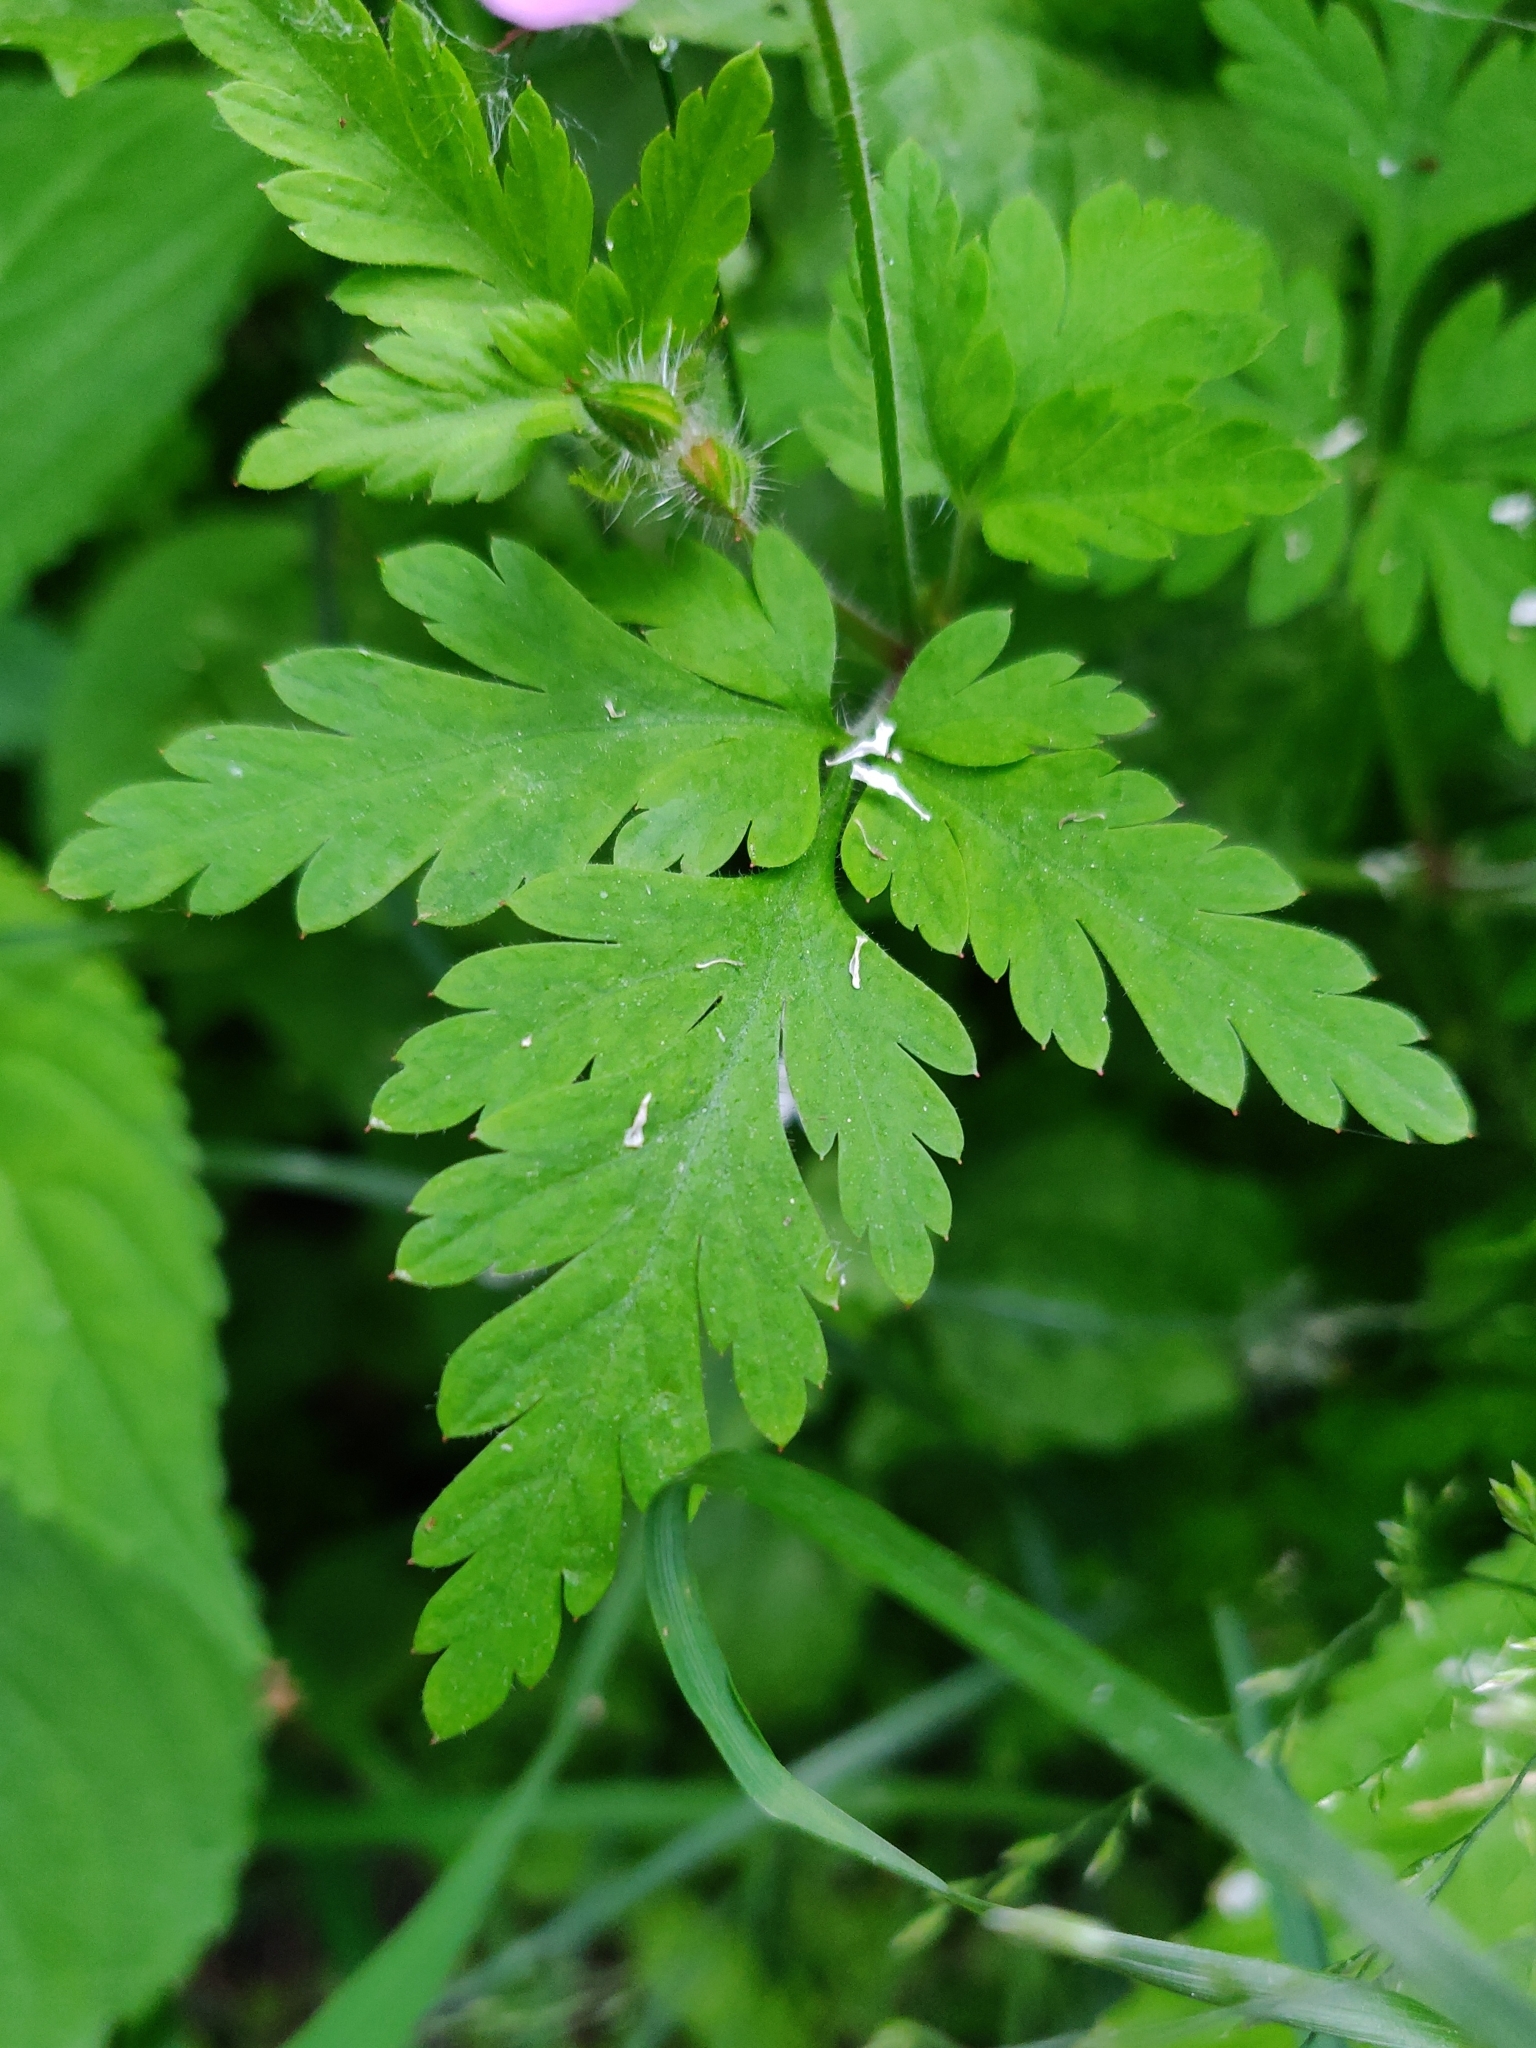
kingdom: Plantae
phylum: Tracheophyta
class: Magnoliopsida
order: Geraniales
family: Geraniaceae
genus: Geranium
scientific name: Geranium robertianum
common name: Herb-robert
